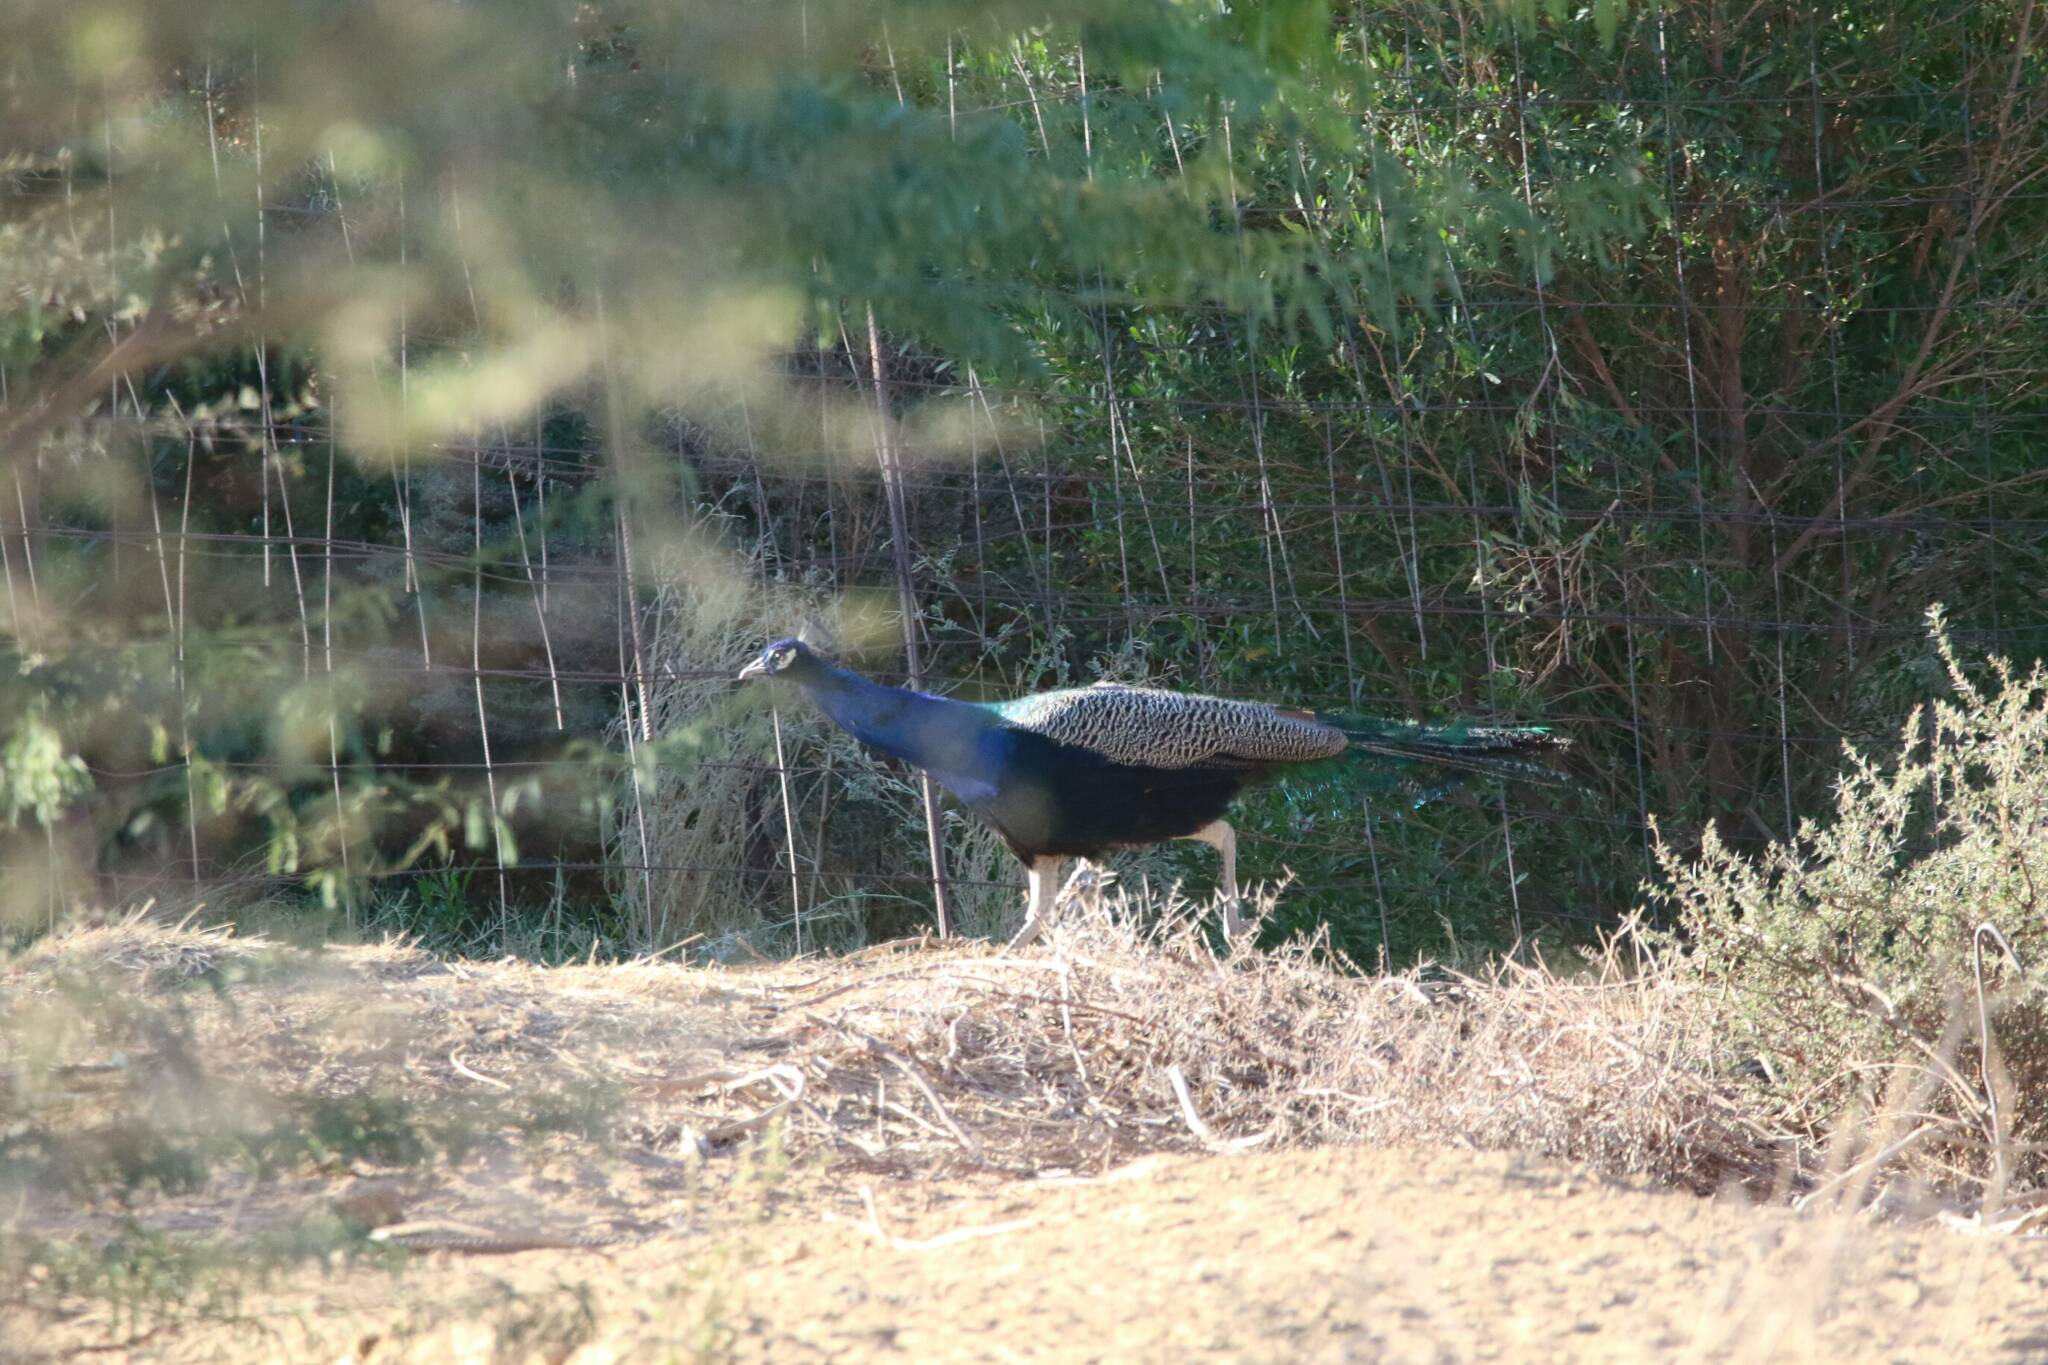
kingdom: Animalia
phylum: Chordata
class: Aves
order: Galliformes
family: Phasianidae
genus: Pavo
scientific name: Pavo cristatus
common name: Indian peafowl
